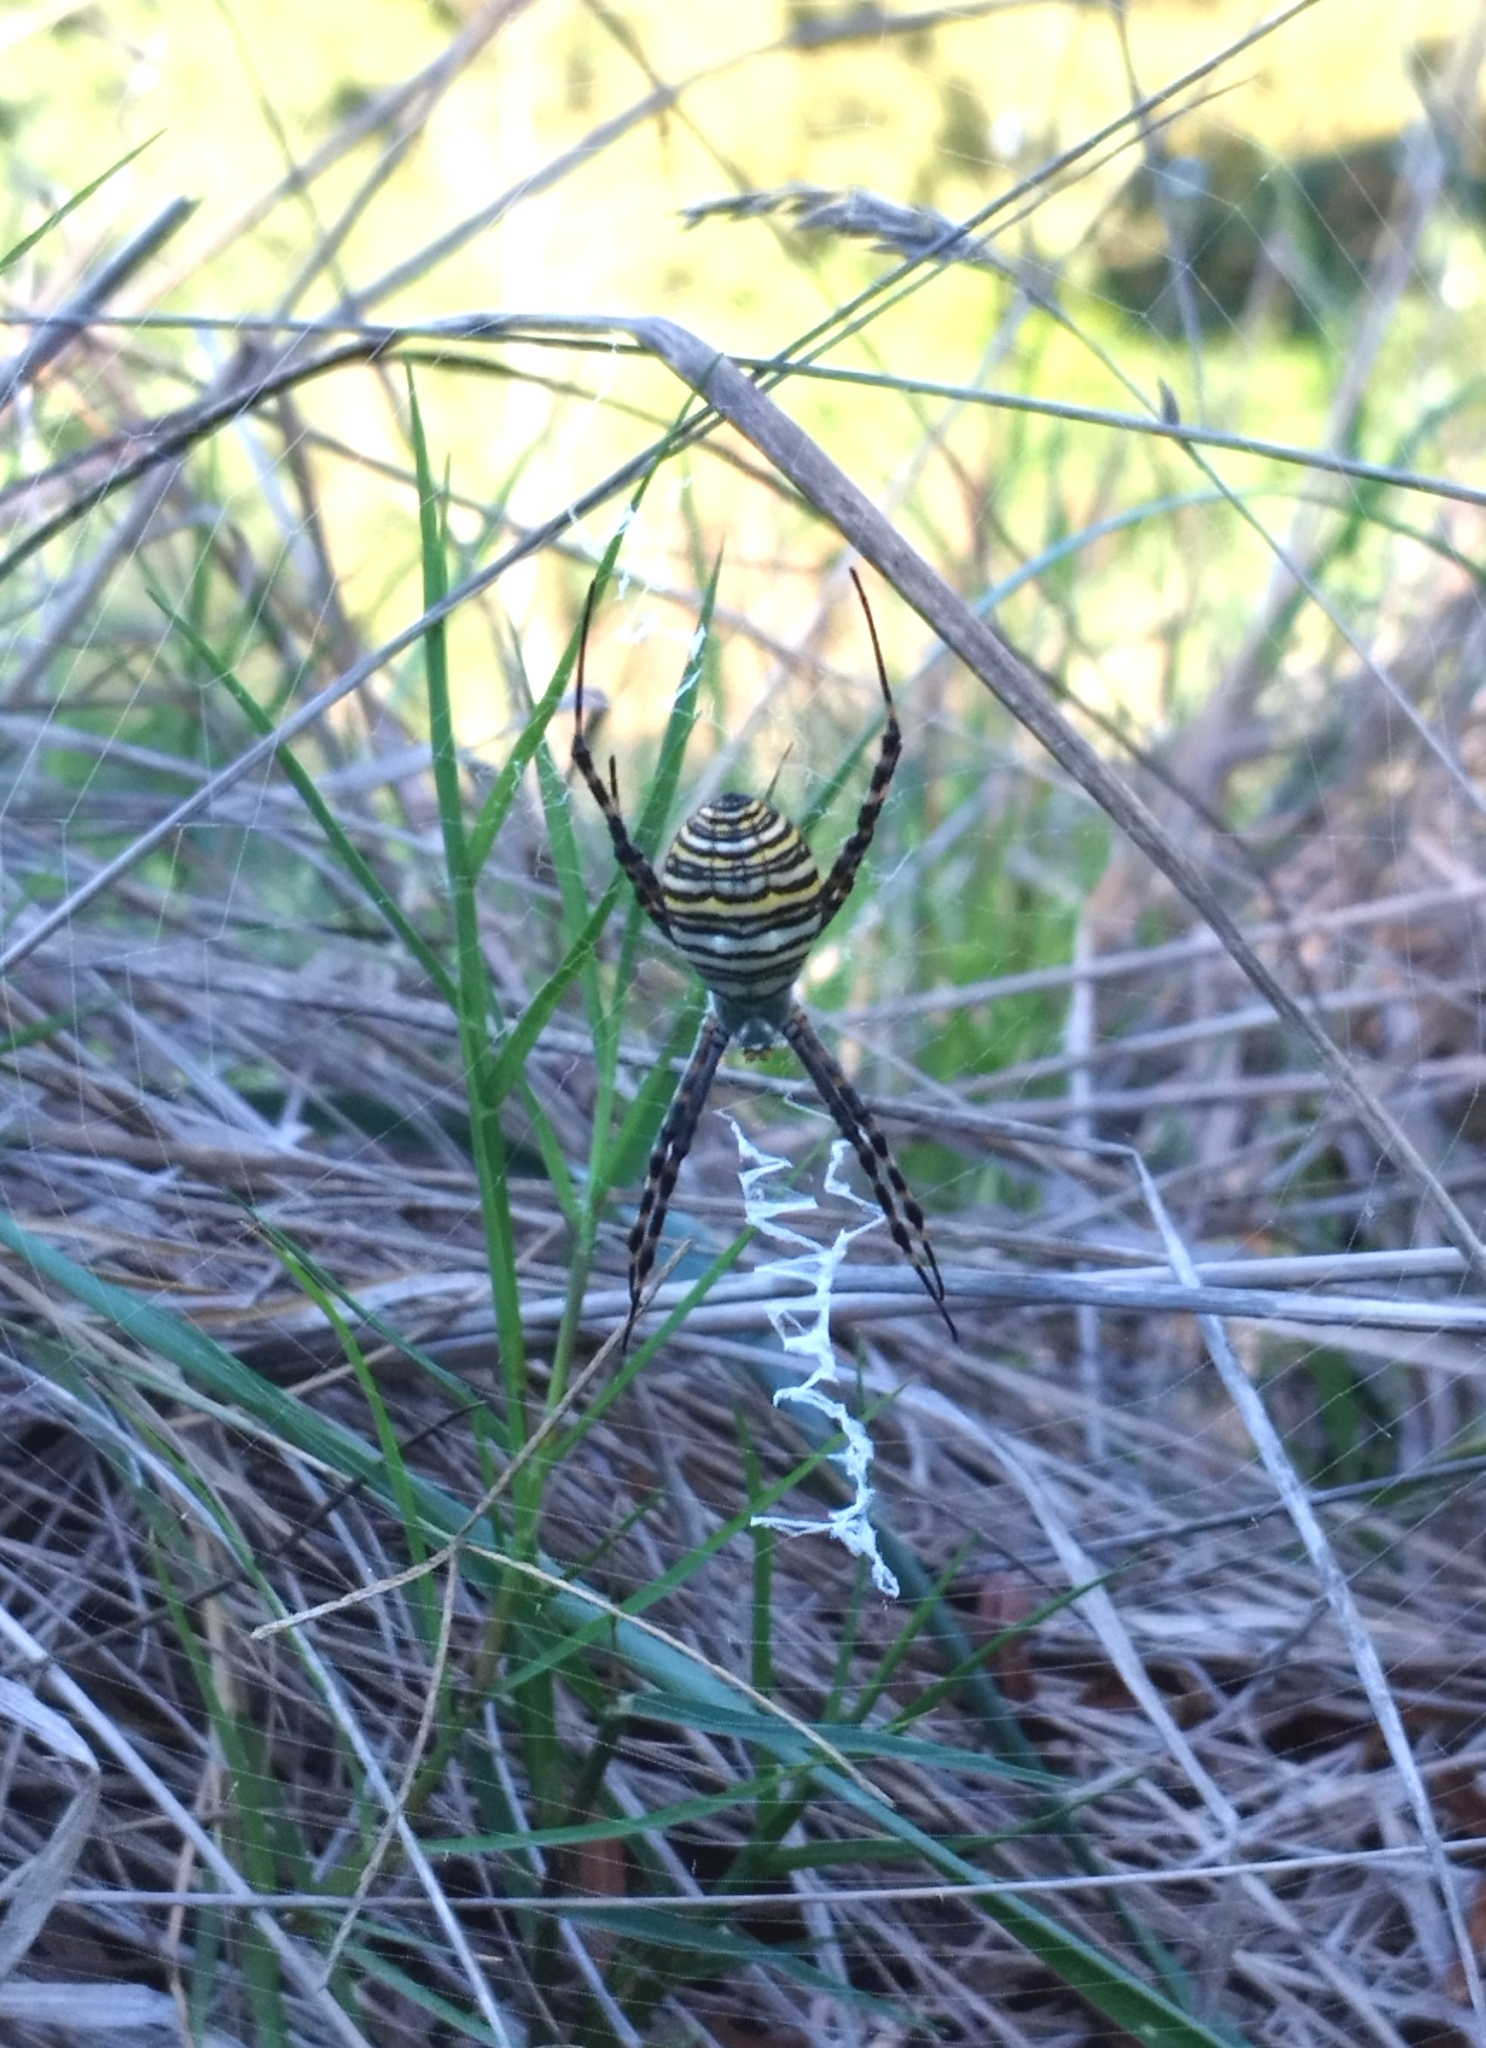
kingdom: Animalia
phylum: Arthropoda
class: Arachnida
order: Araneae
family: Araneidae
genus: Argiope
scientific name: Argiope trifasciata
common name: Banded garden spider
